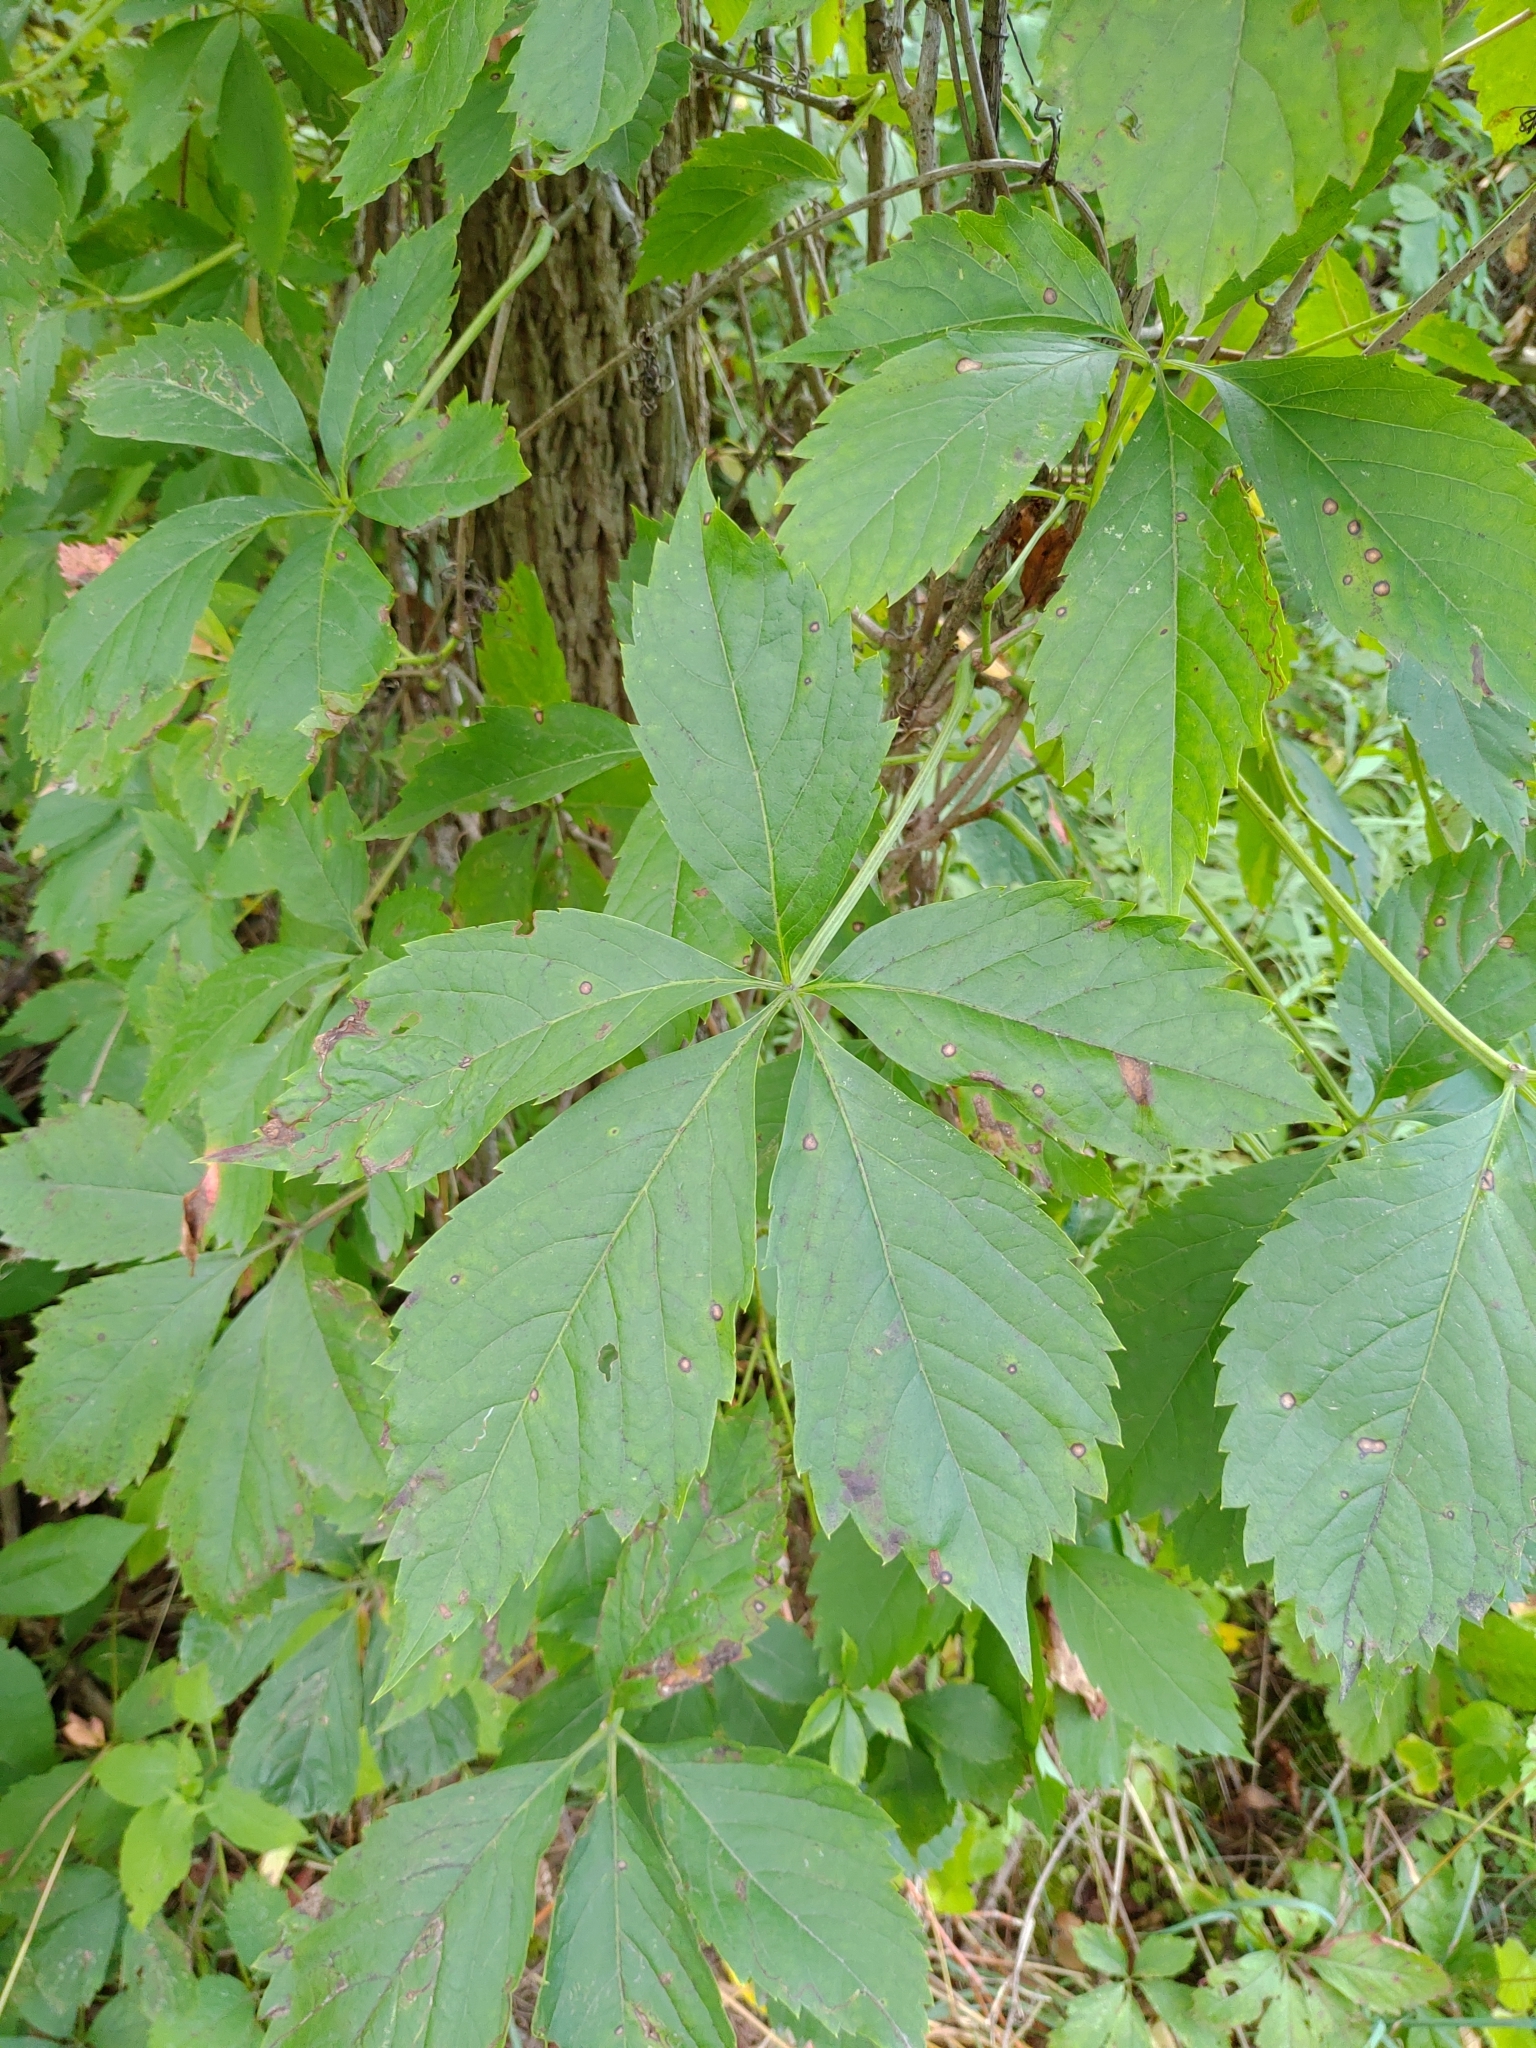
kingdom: Plantae
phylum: Tracheophyta
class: Magnoliopsida
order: Vitales
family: Vitaceae
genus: Parthenocissus
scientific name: Parthenocissus quinquefolia
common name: Virginia-creeper
